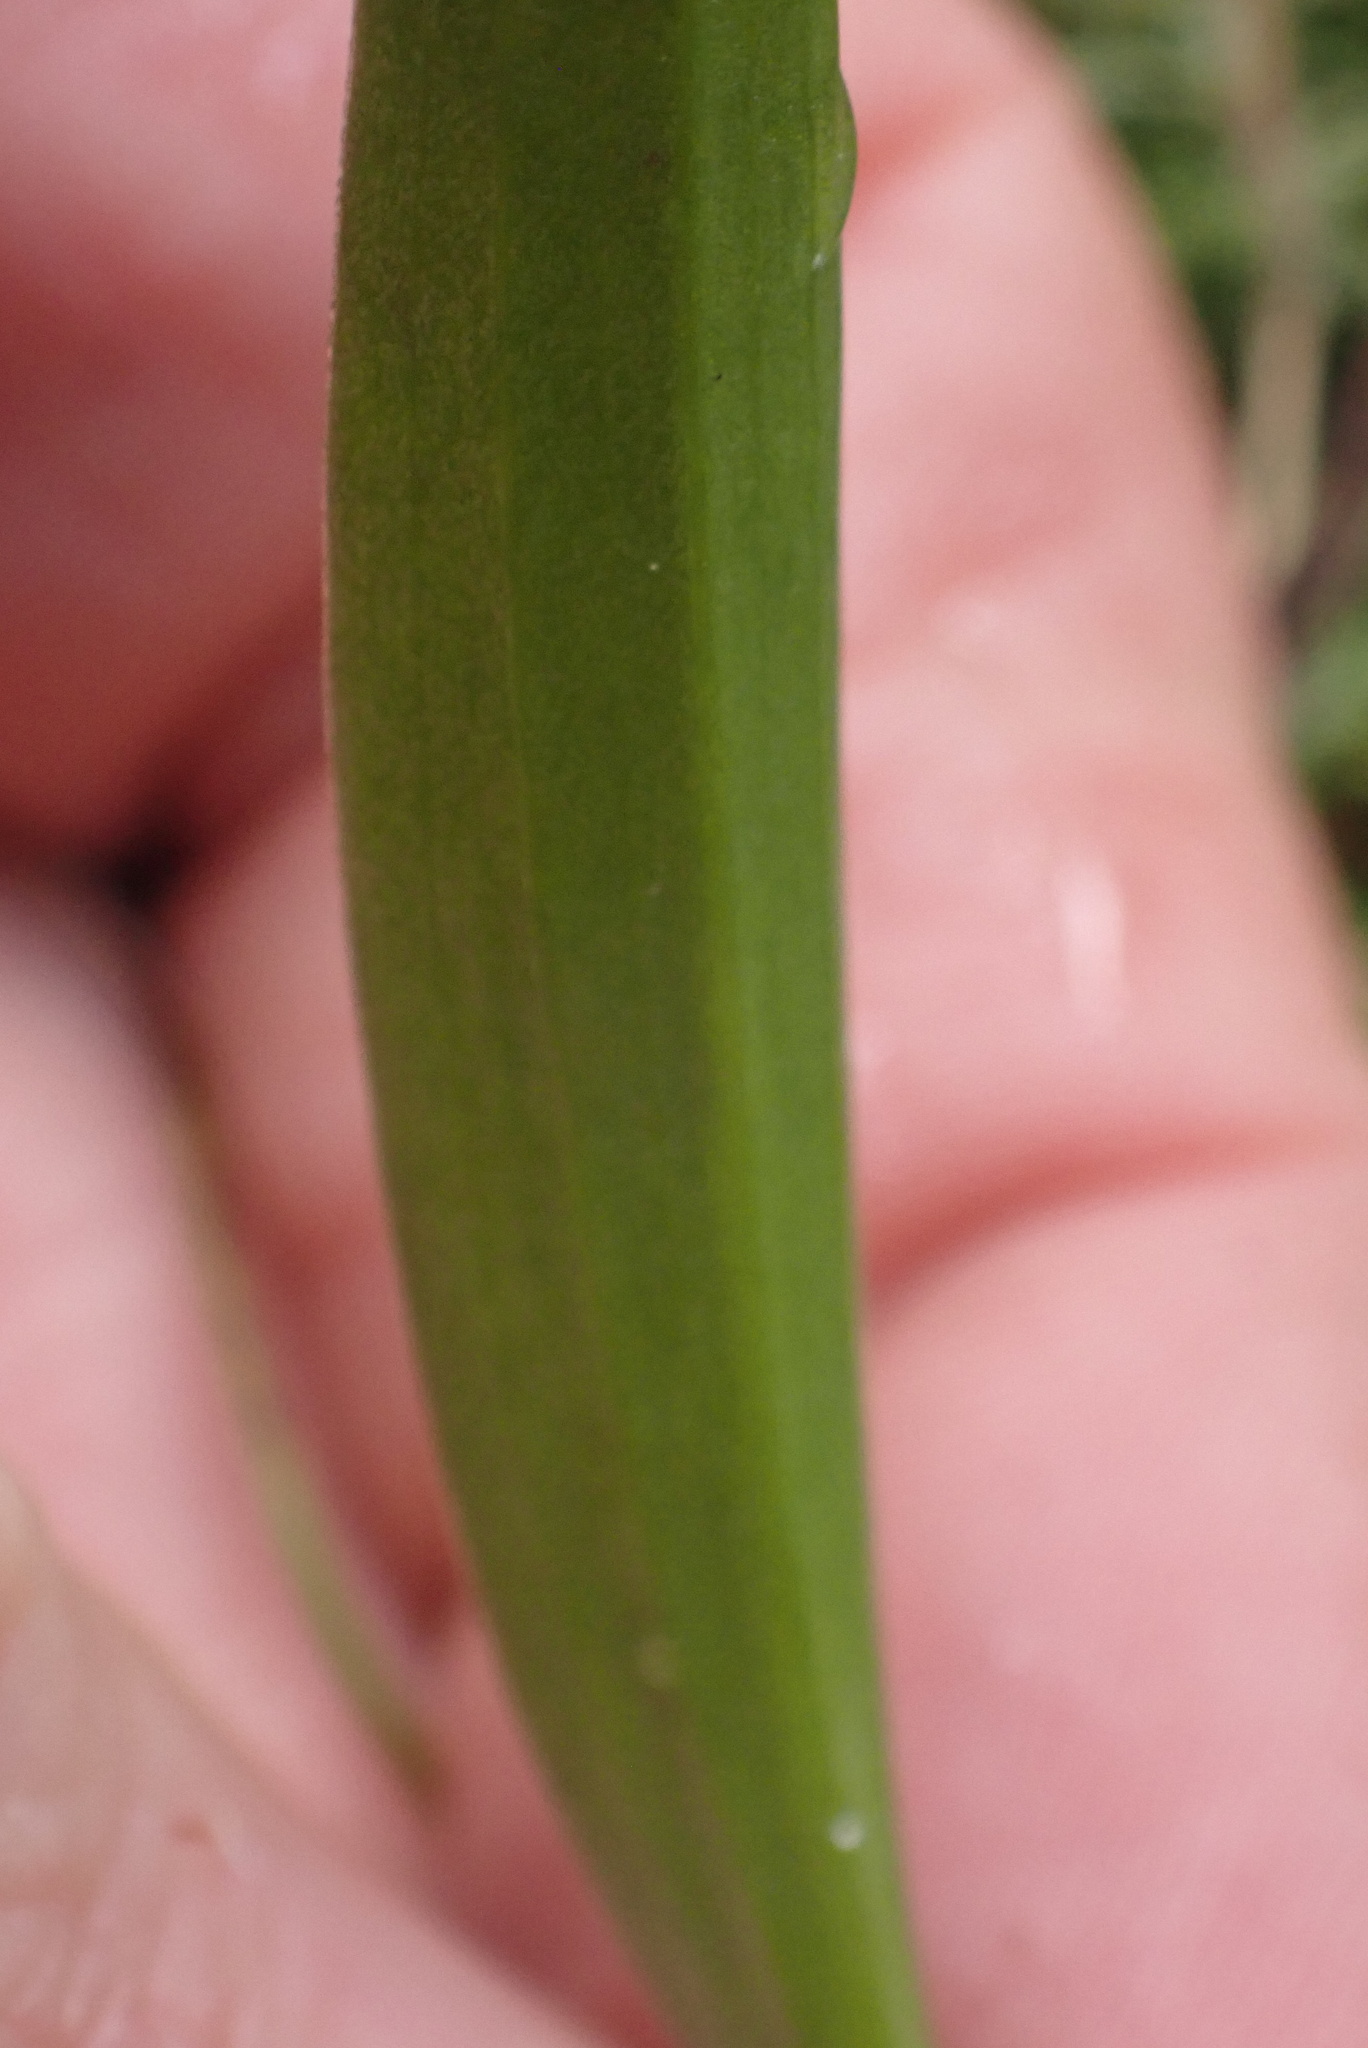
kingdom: Plantae
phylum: Tracheophyta
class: Liliopsida
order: Liliales
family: Liliaceae
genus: Fritillaria
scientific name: Fritillaria affinis
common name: Ojai fritillary
